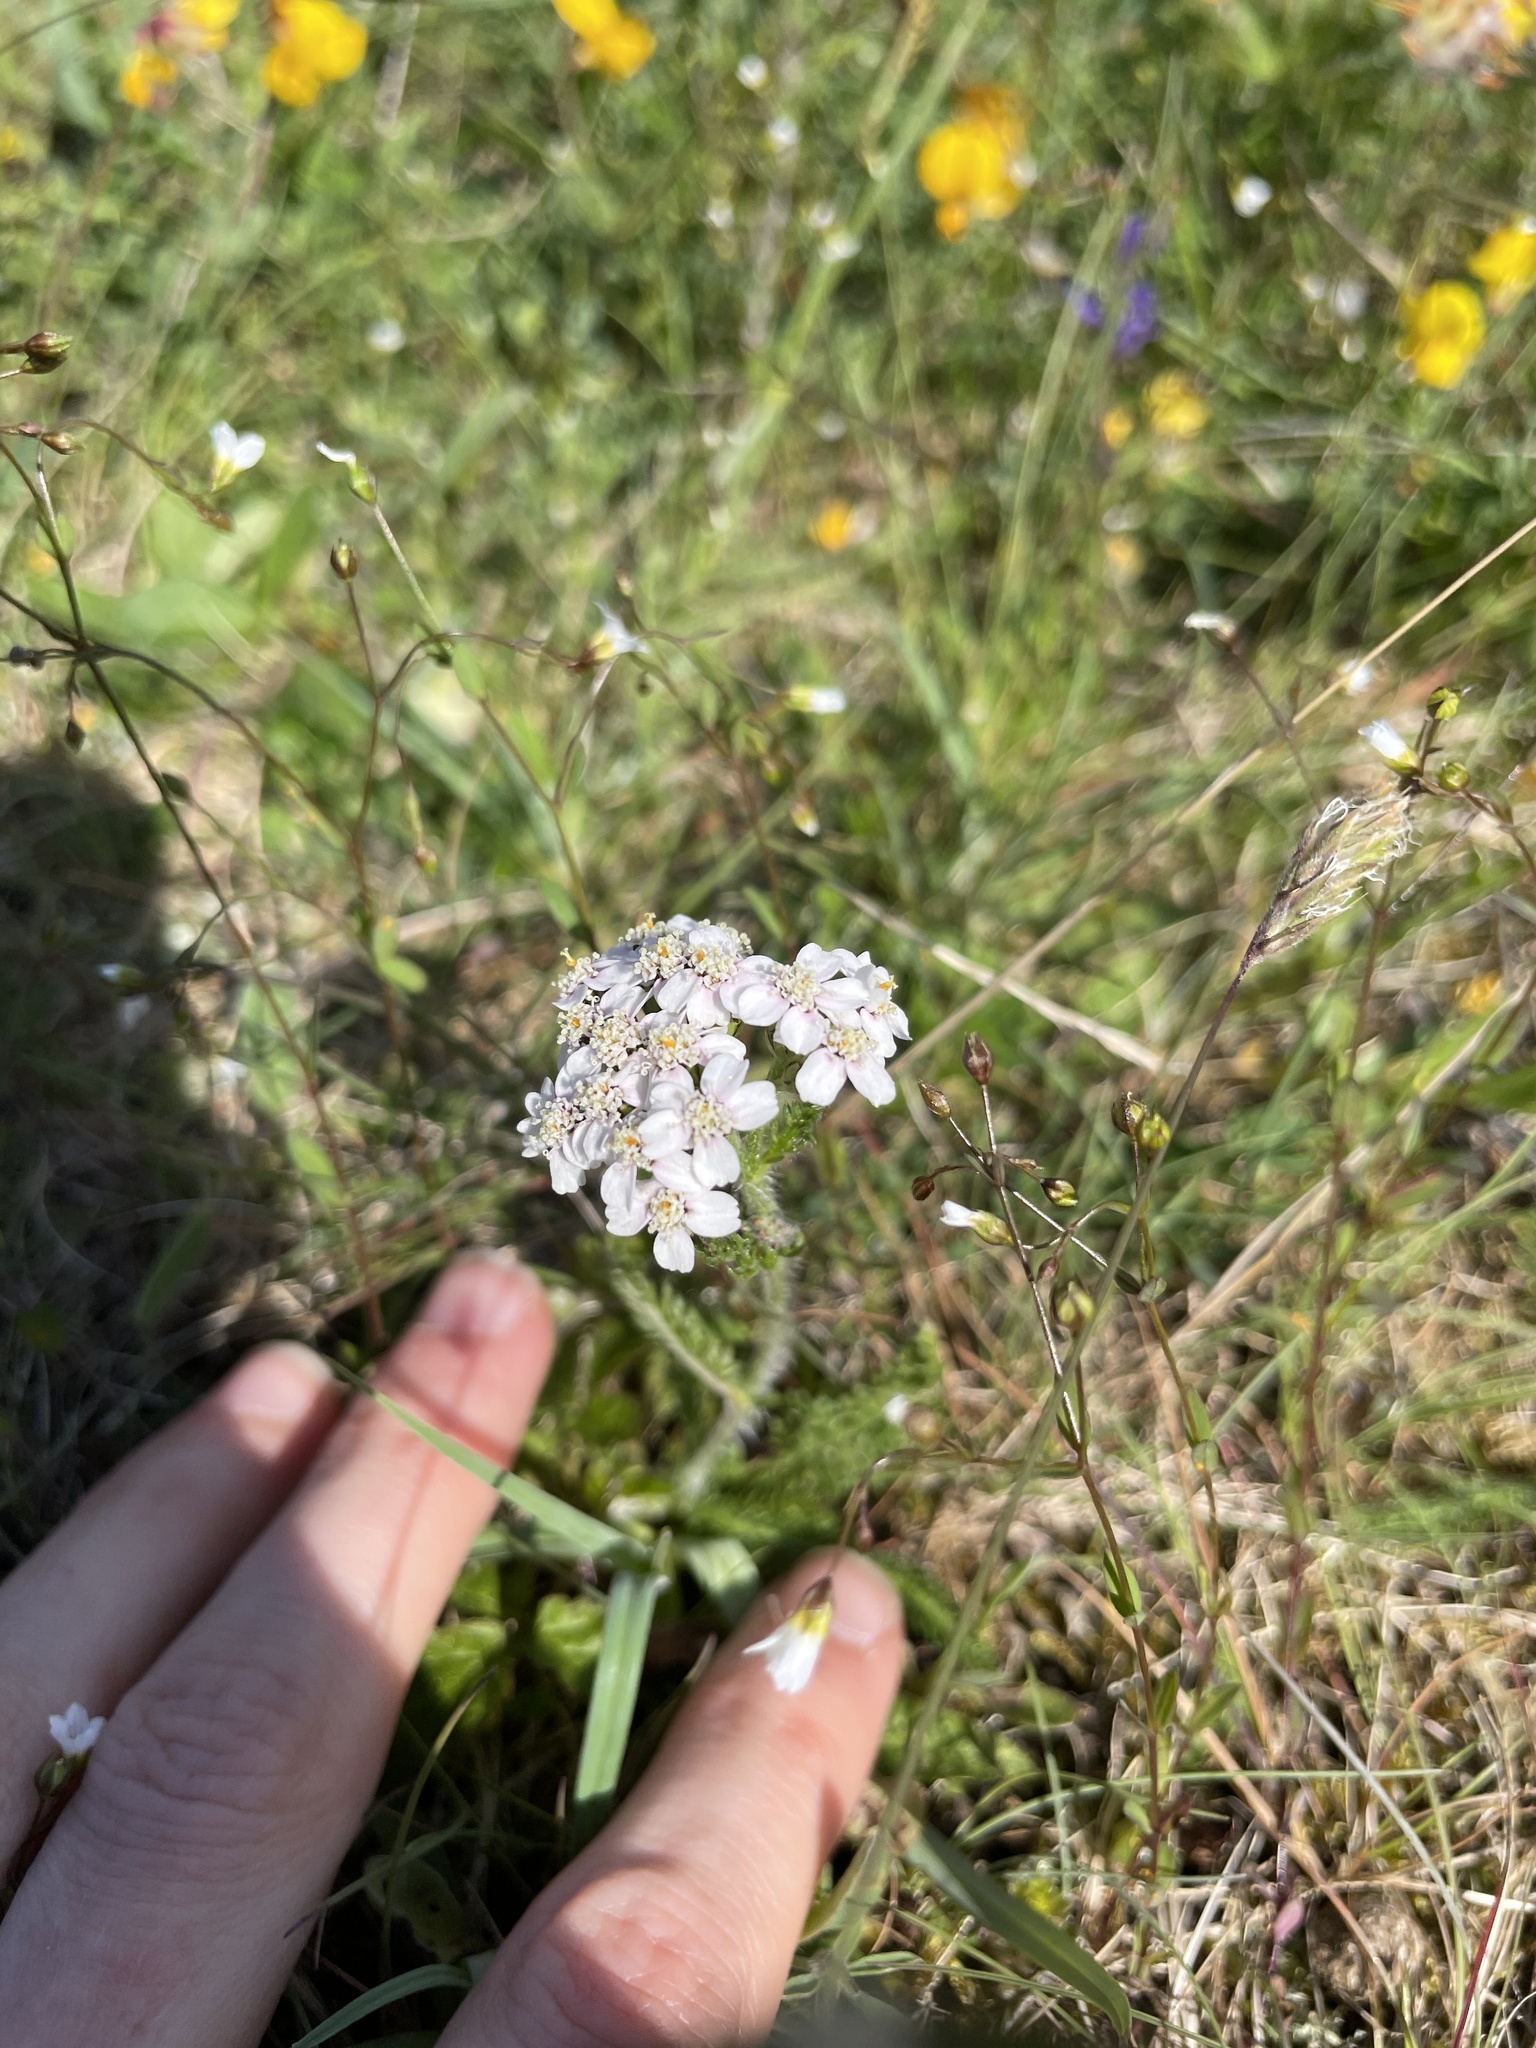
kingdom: Plantae
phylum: Tracheophyta
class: Magnoliopsida
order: Asterales
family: Asteraceae
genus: Achillea
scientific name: Achillea millefolium
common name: Yarrow
